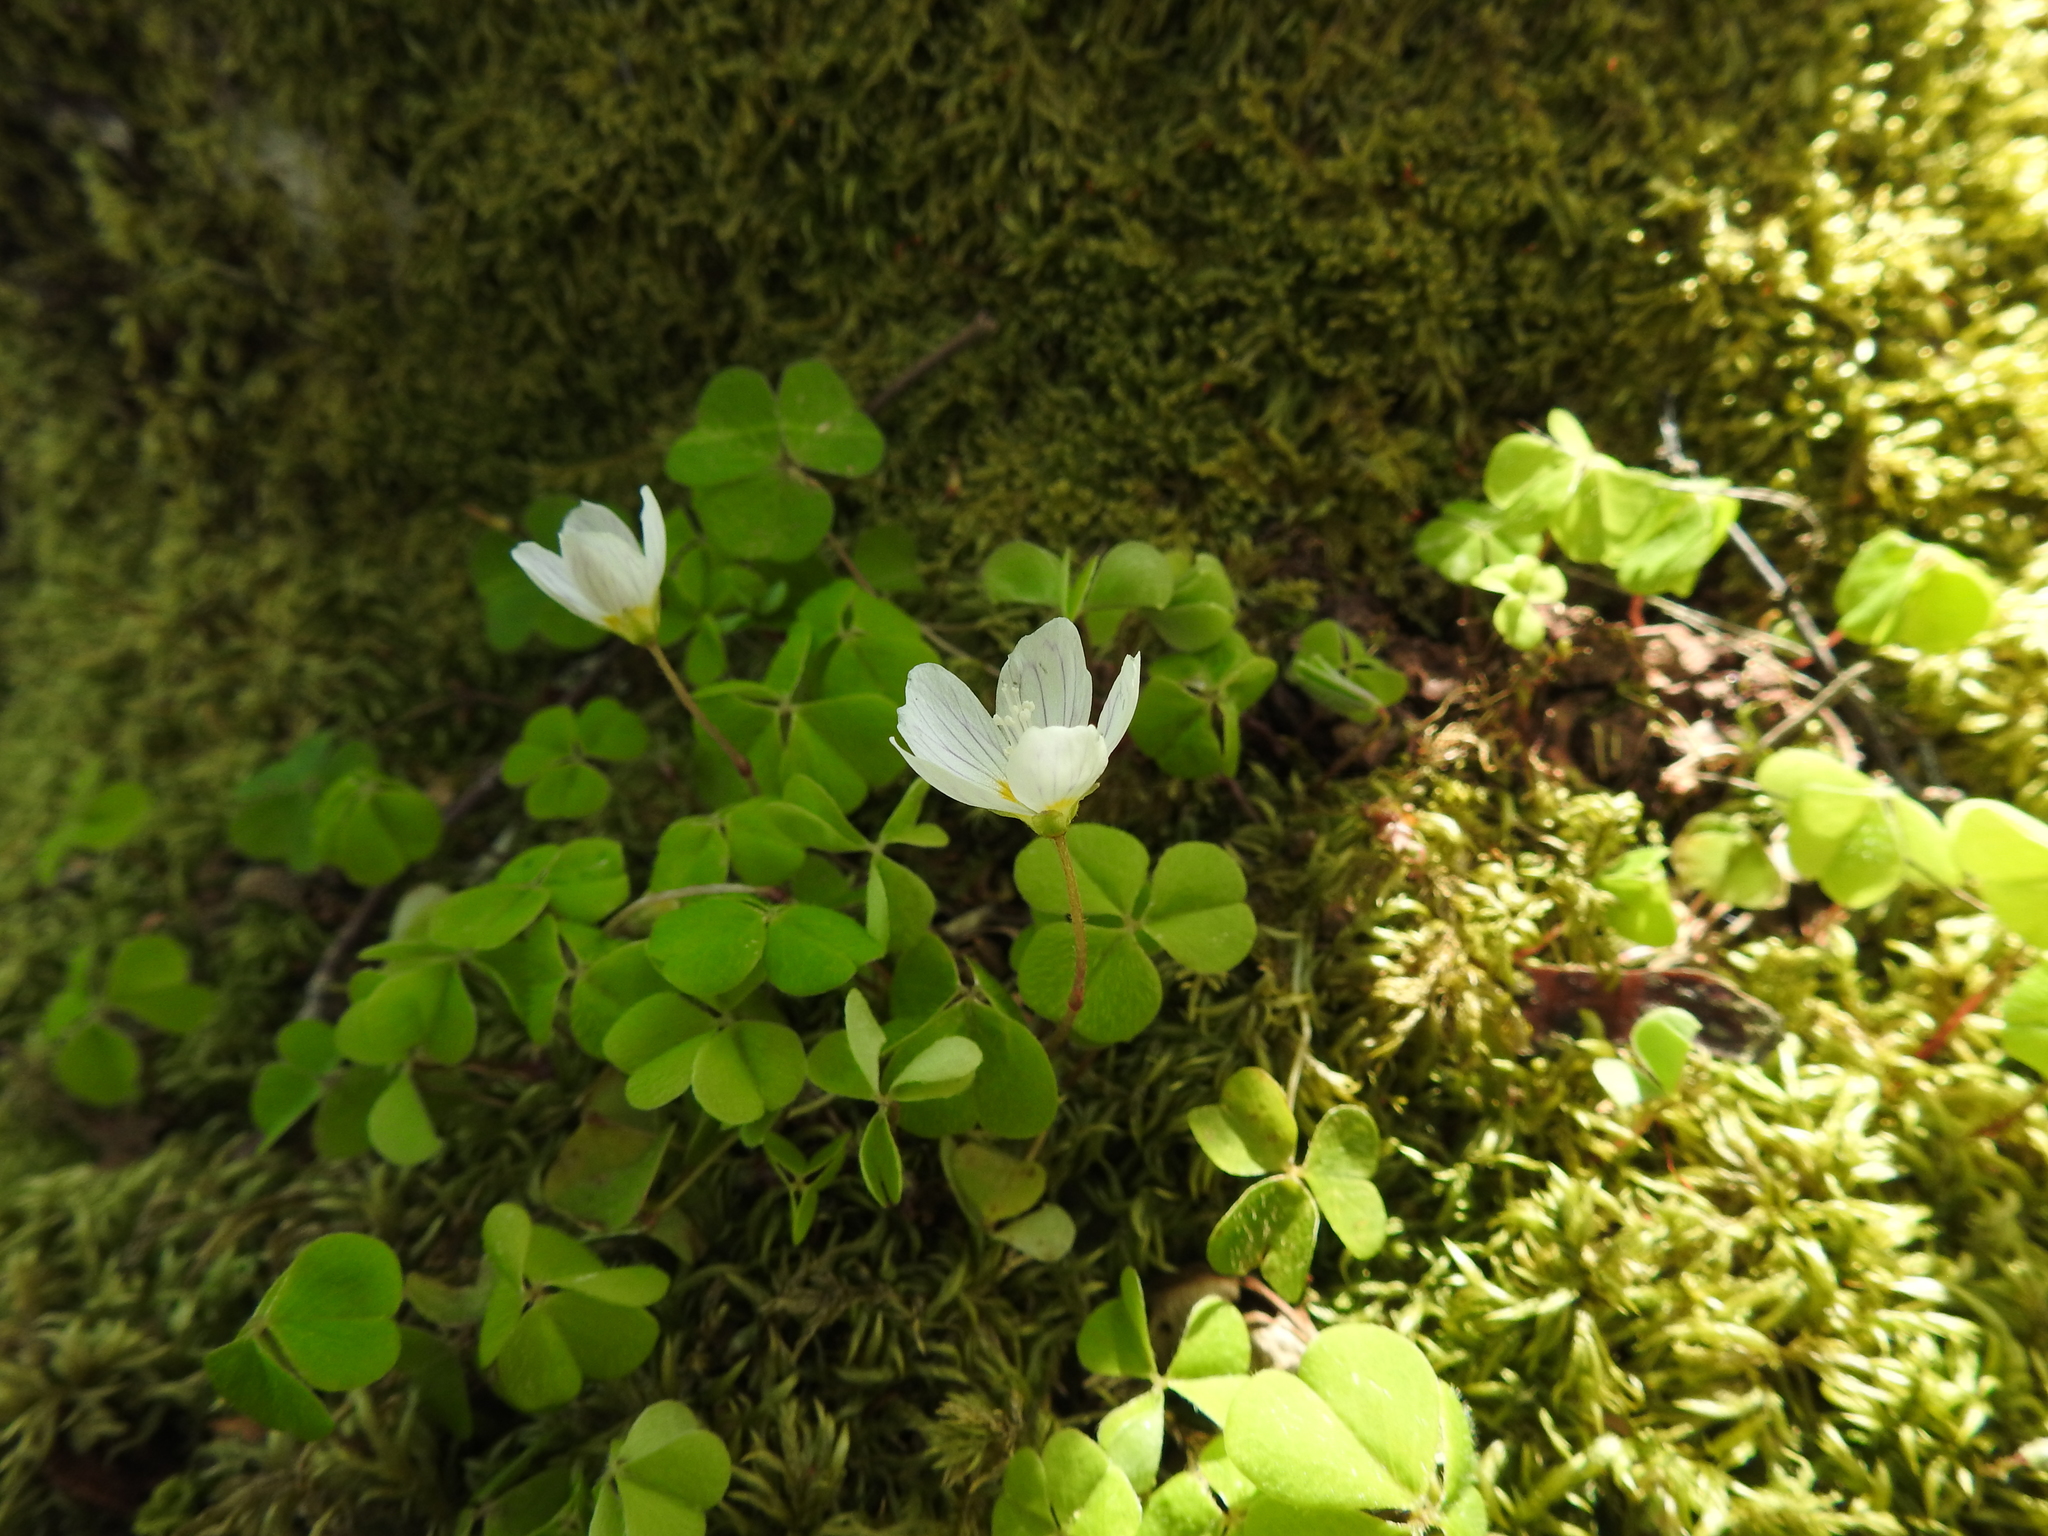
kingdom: Plantae
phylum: Tracheophyta
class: Magnoliopsida
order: Oxalidales
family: Oxalidaceae
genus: Oxalis
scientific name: Oxalis acetosella
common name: Wood-sorrel
